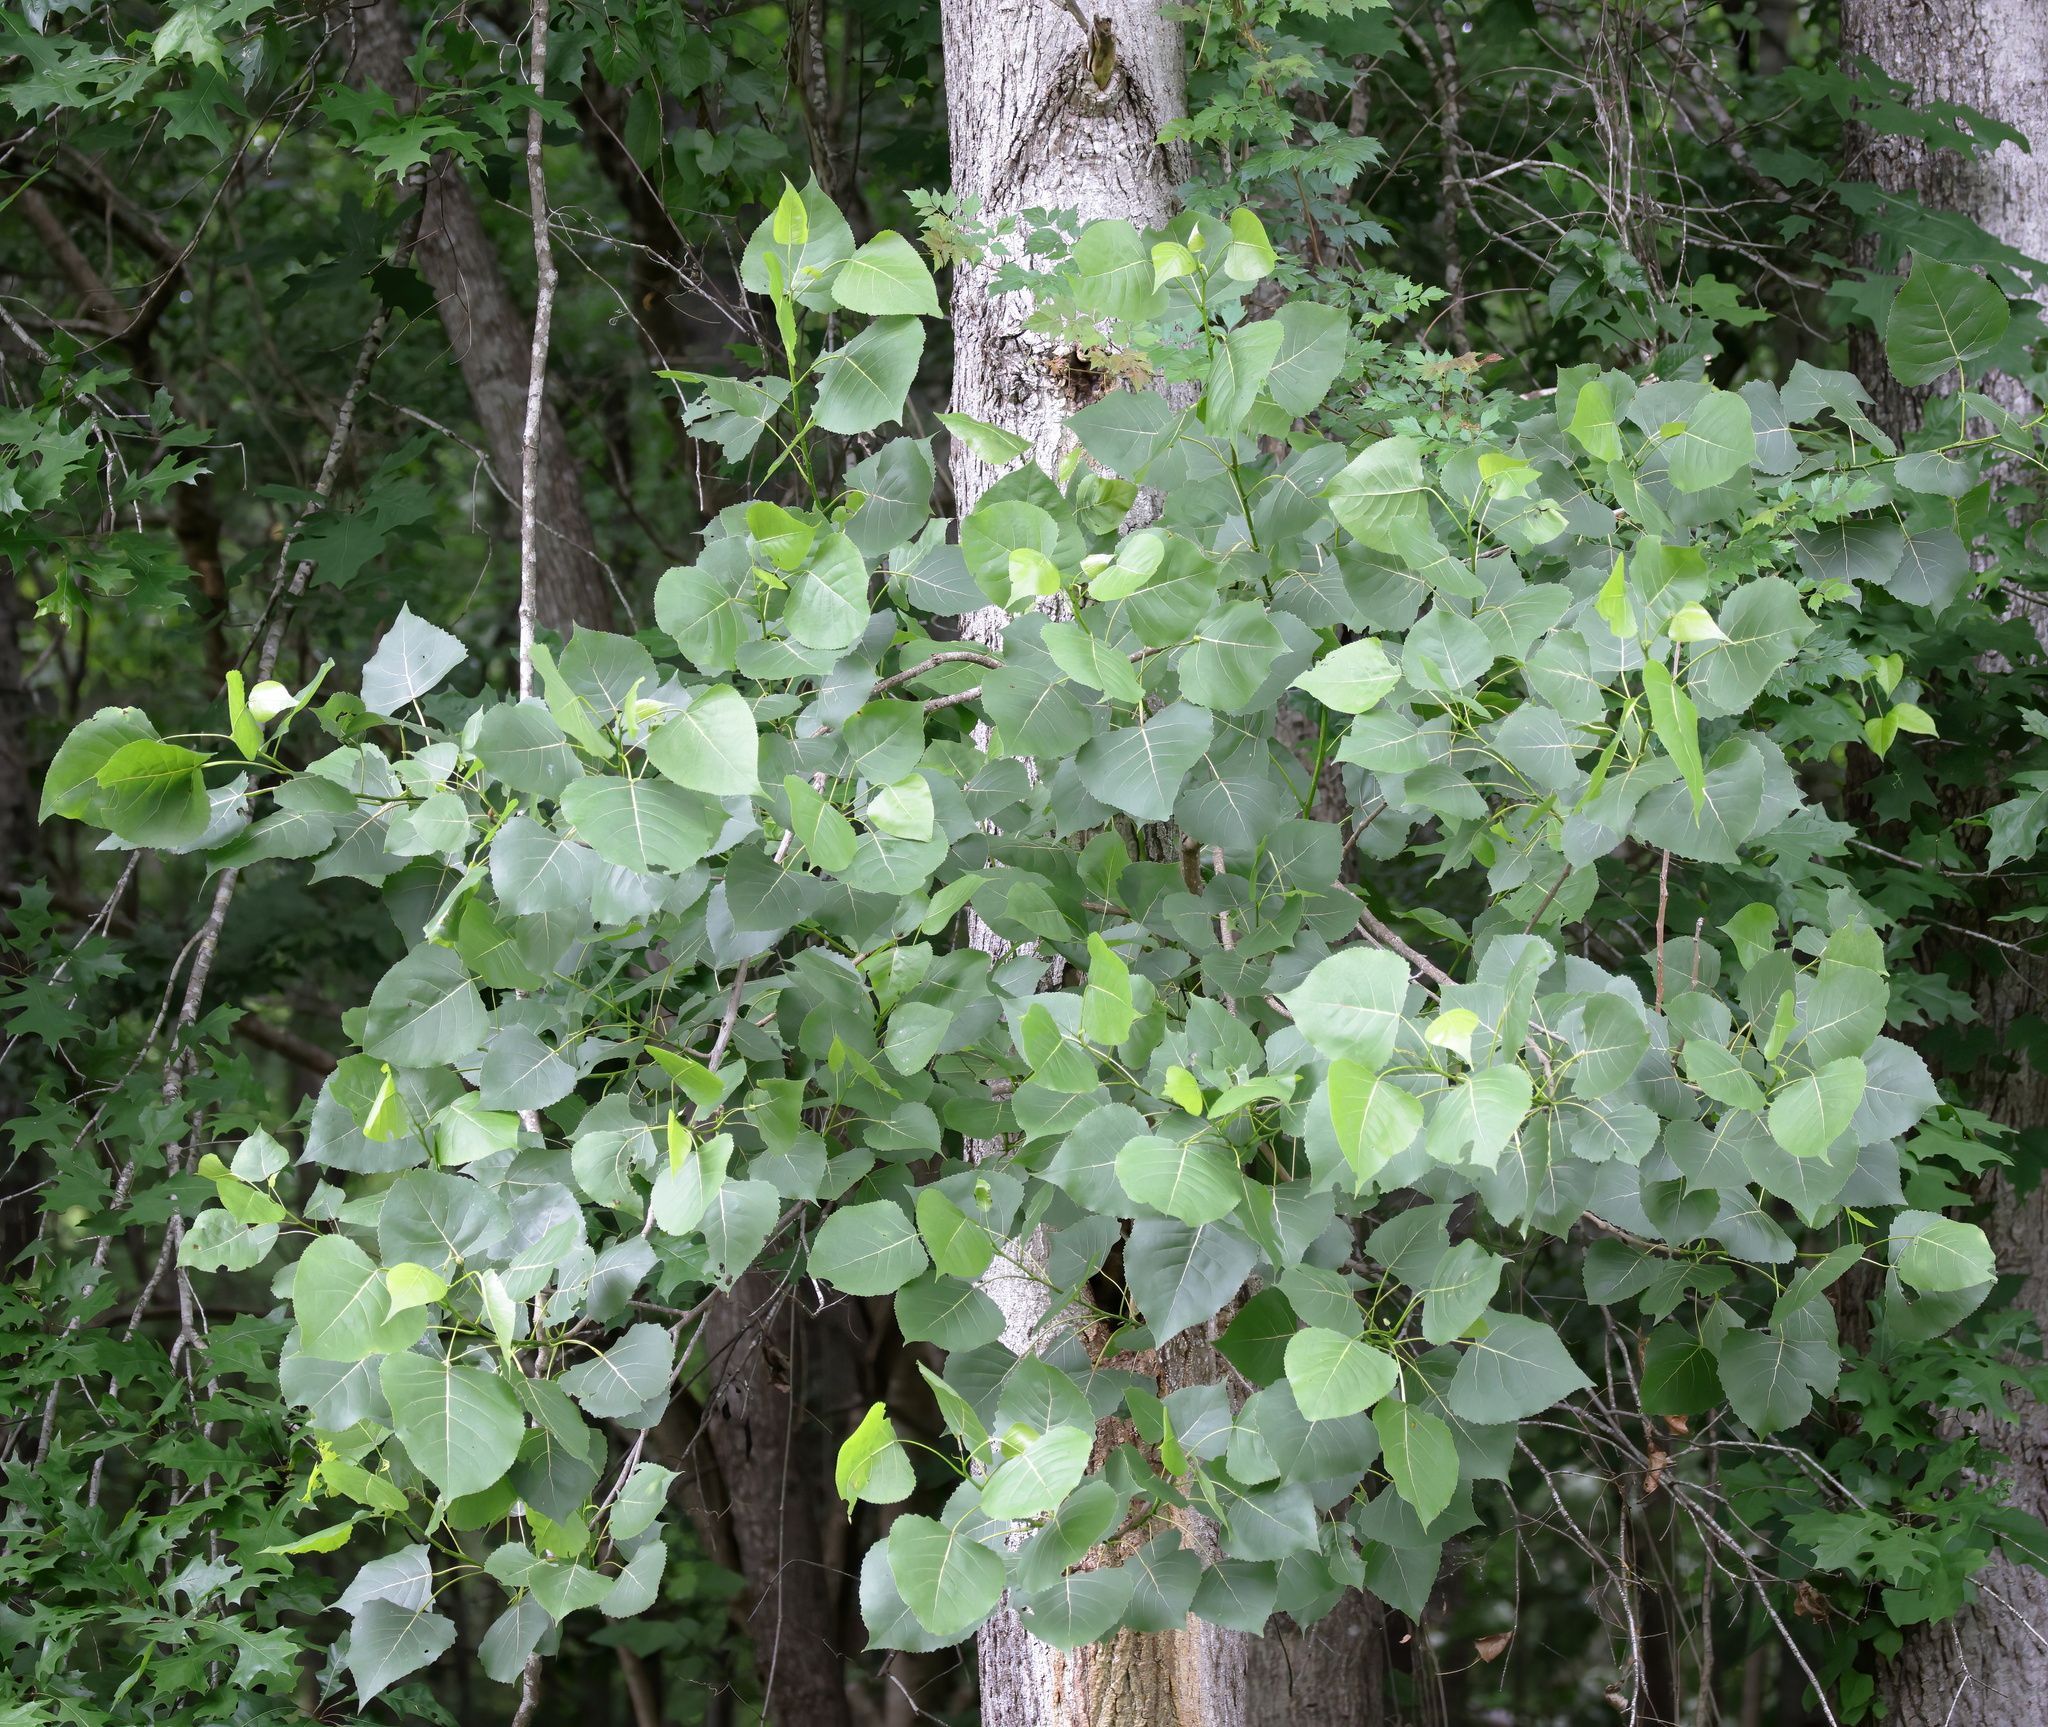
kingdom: Plantae
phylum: Tracheophyta
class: Magnoliopsida
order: Malpighiales
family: Salicaceae
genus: Populus
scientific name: Populus deltoides
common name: Eastern cottonwood
